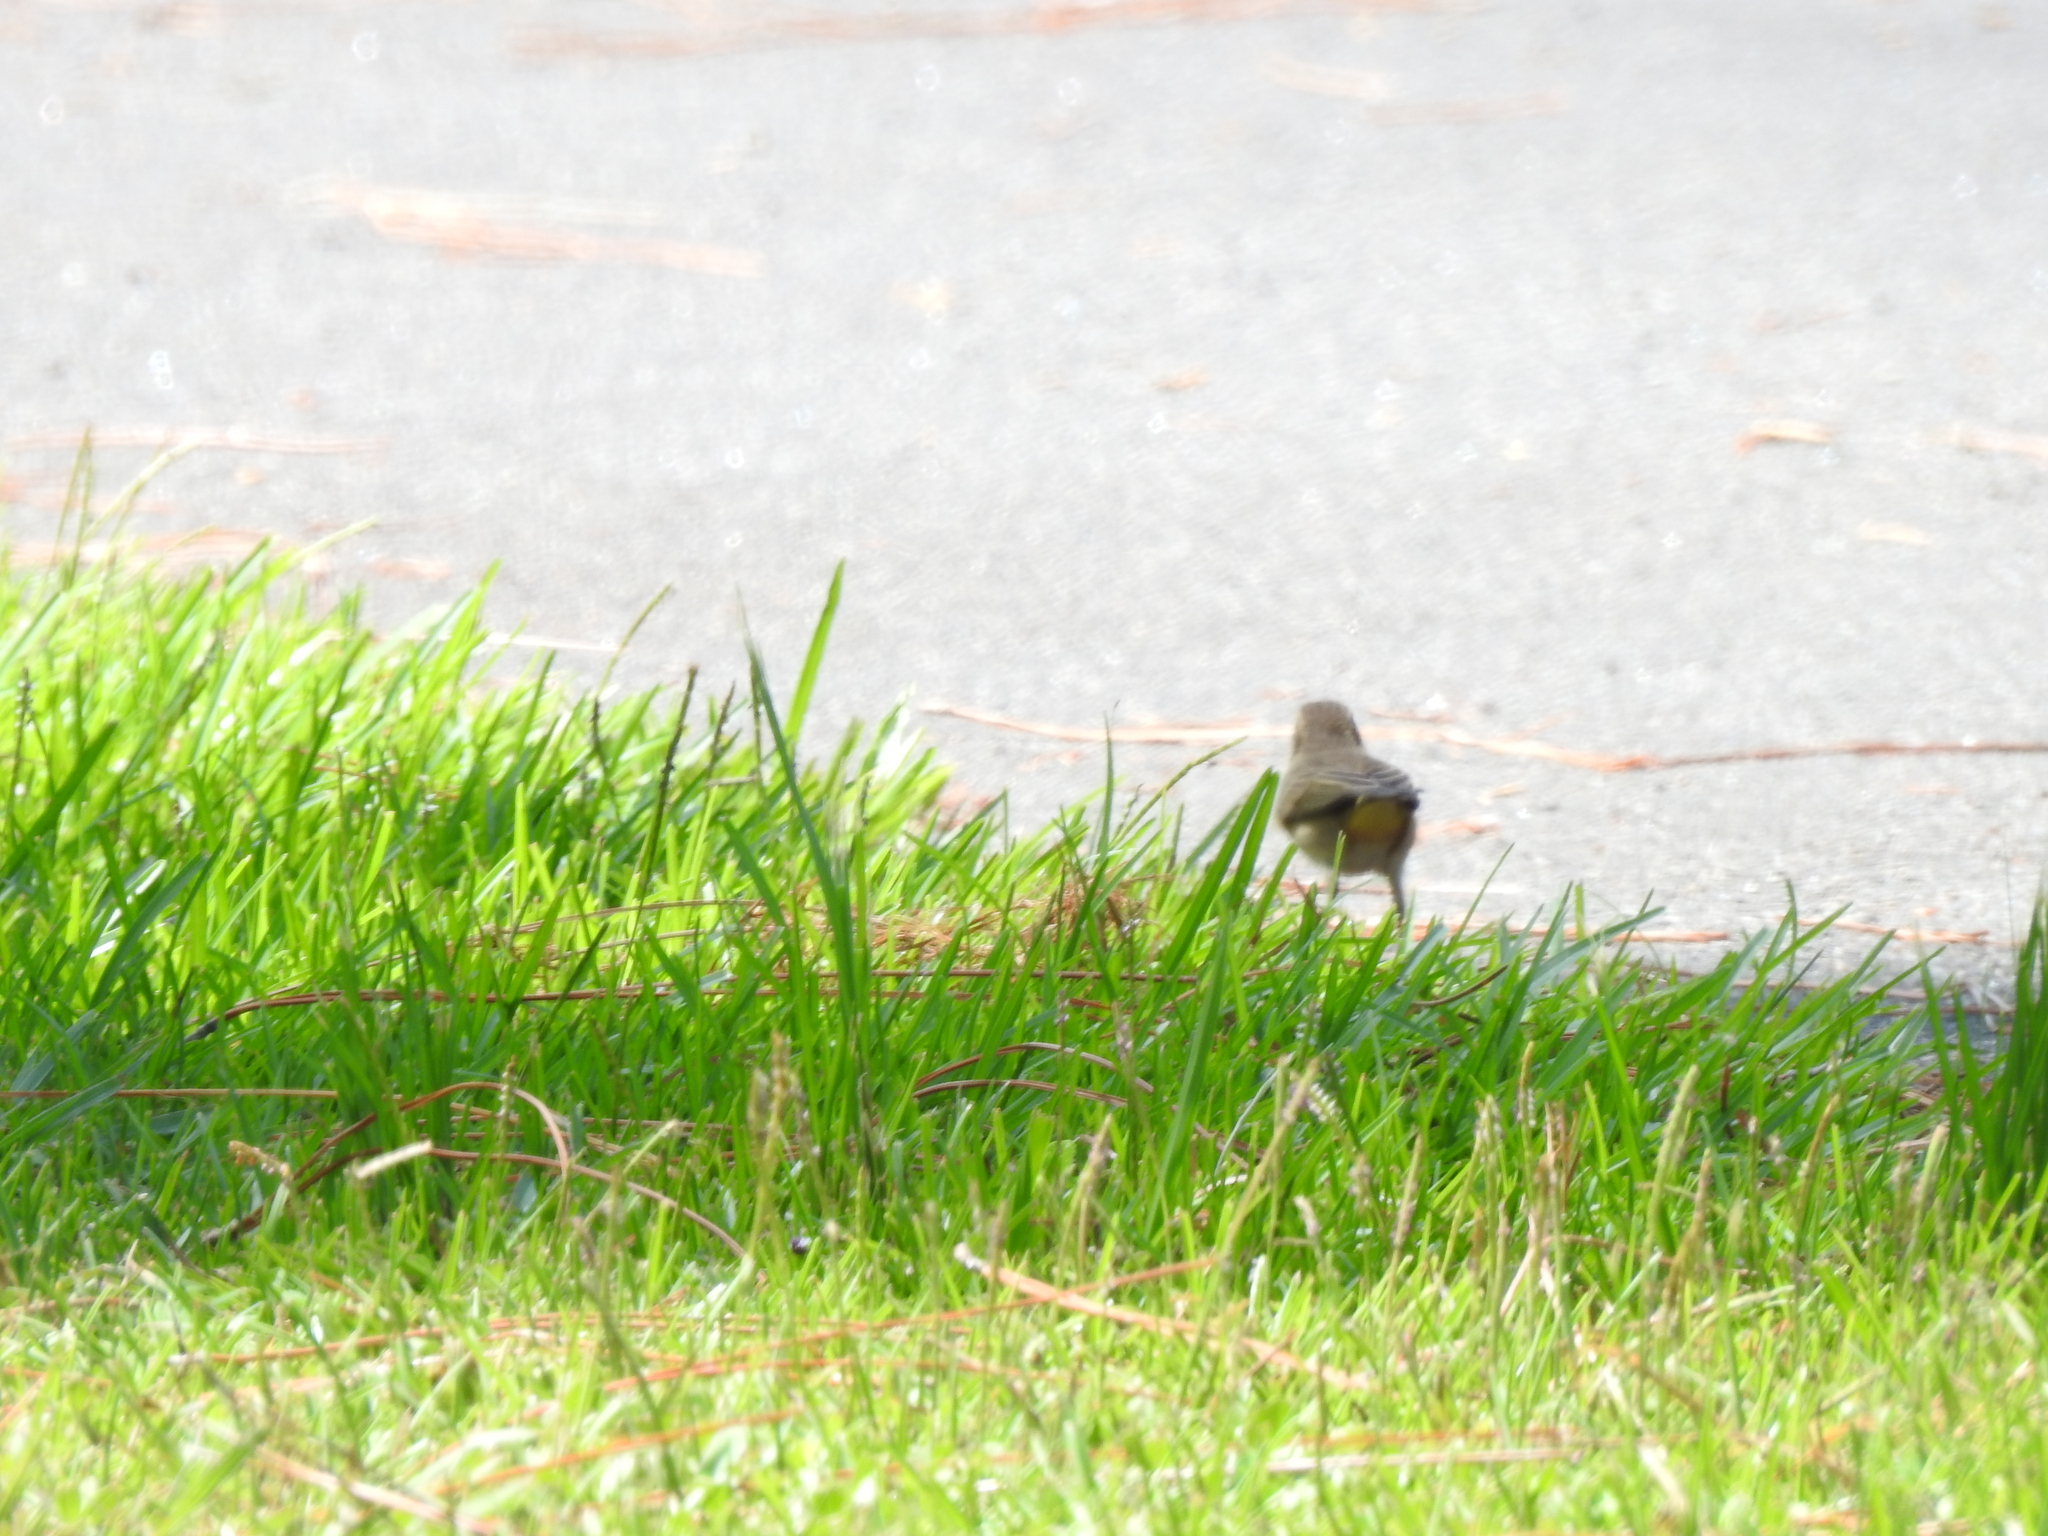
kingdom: Animalia
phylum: Chordata
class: Aves
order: Passeriformes
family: Parulidae
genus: Setophaga
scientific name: Setophaga palmarum
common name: Palm warbler
